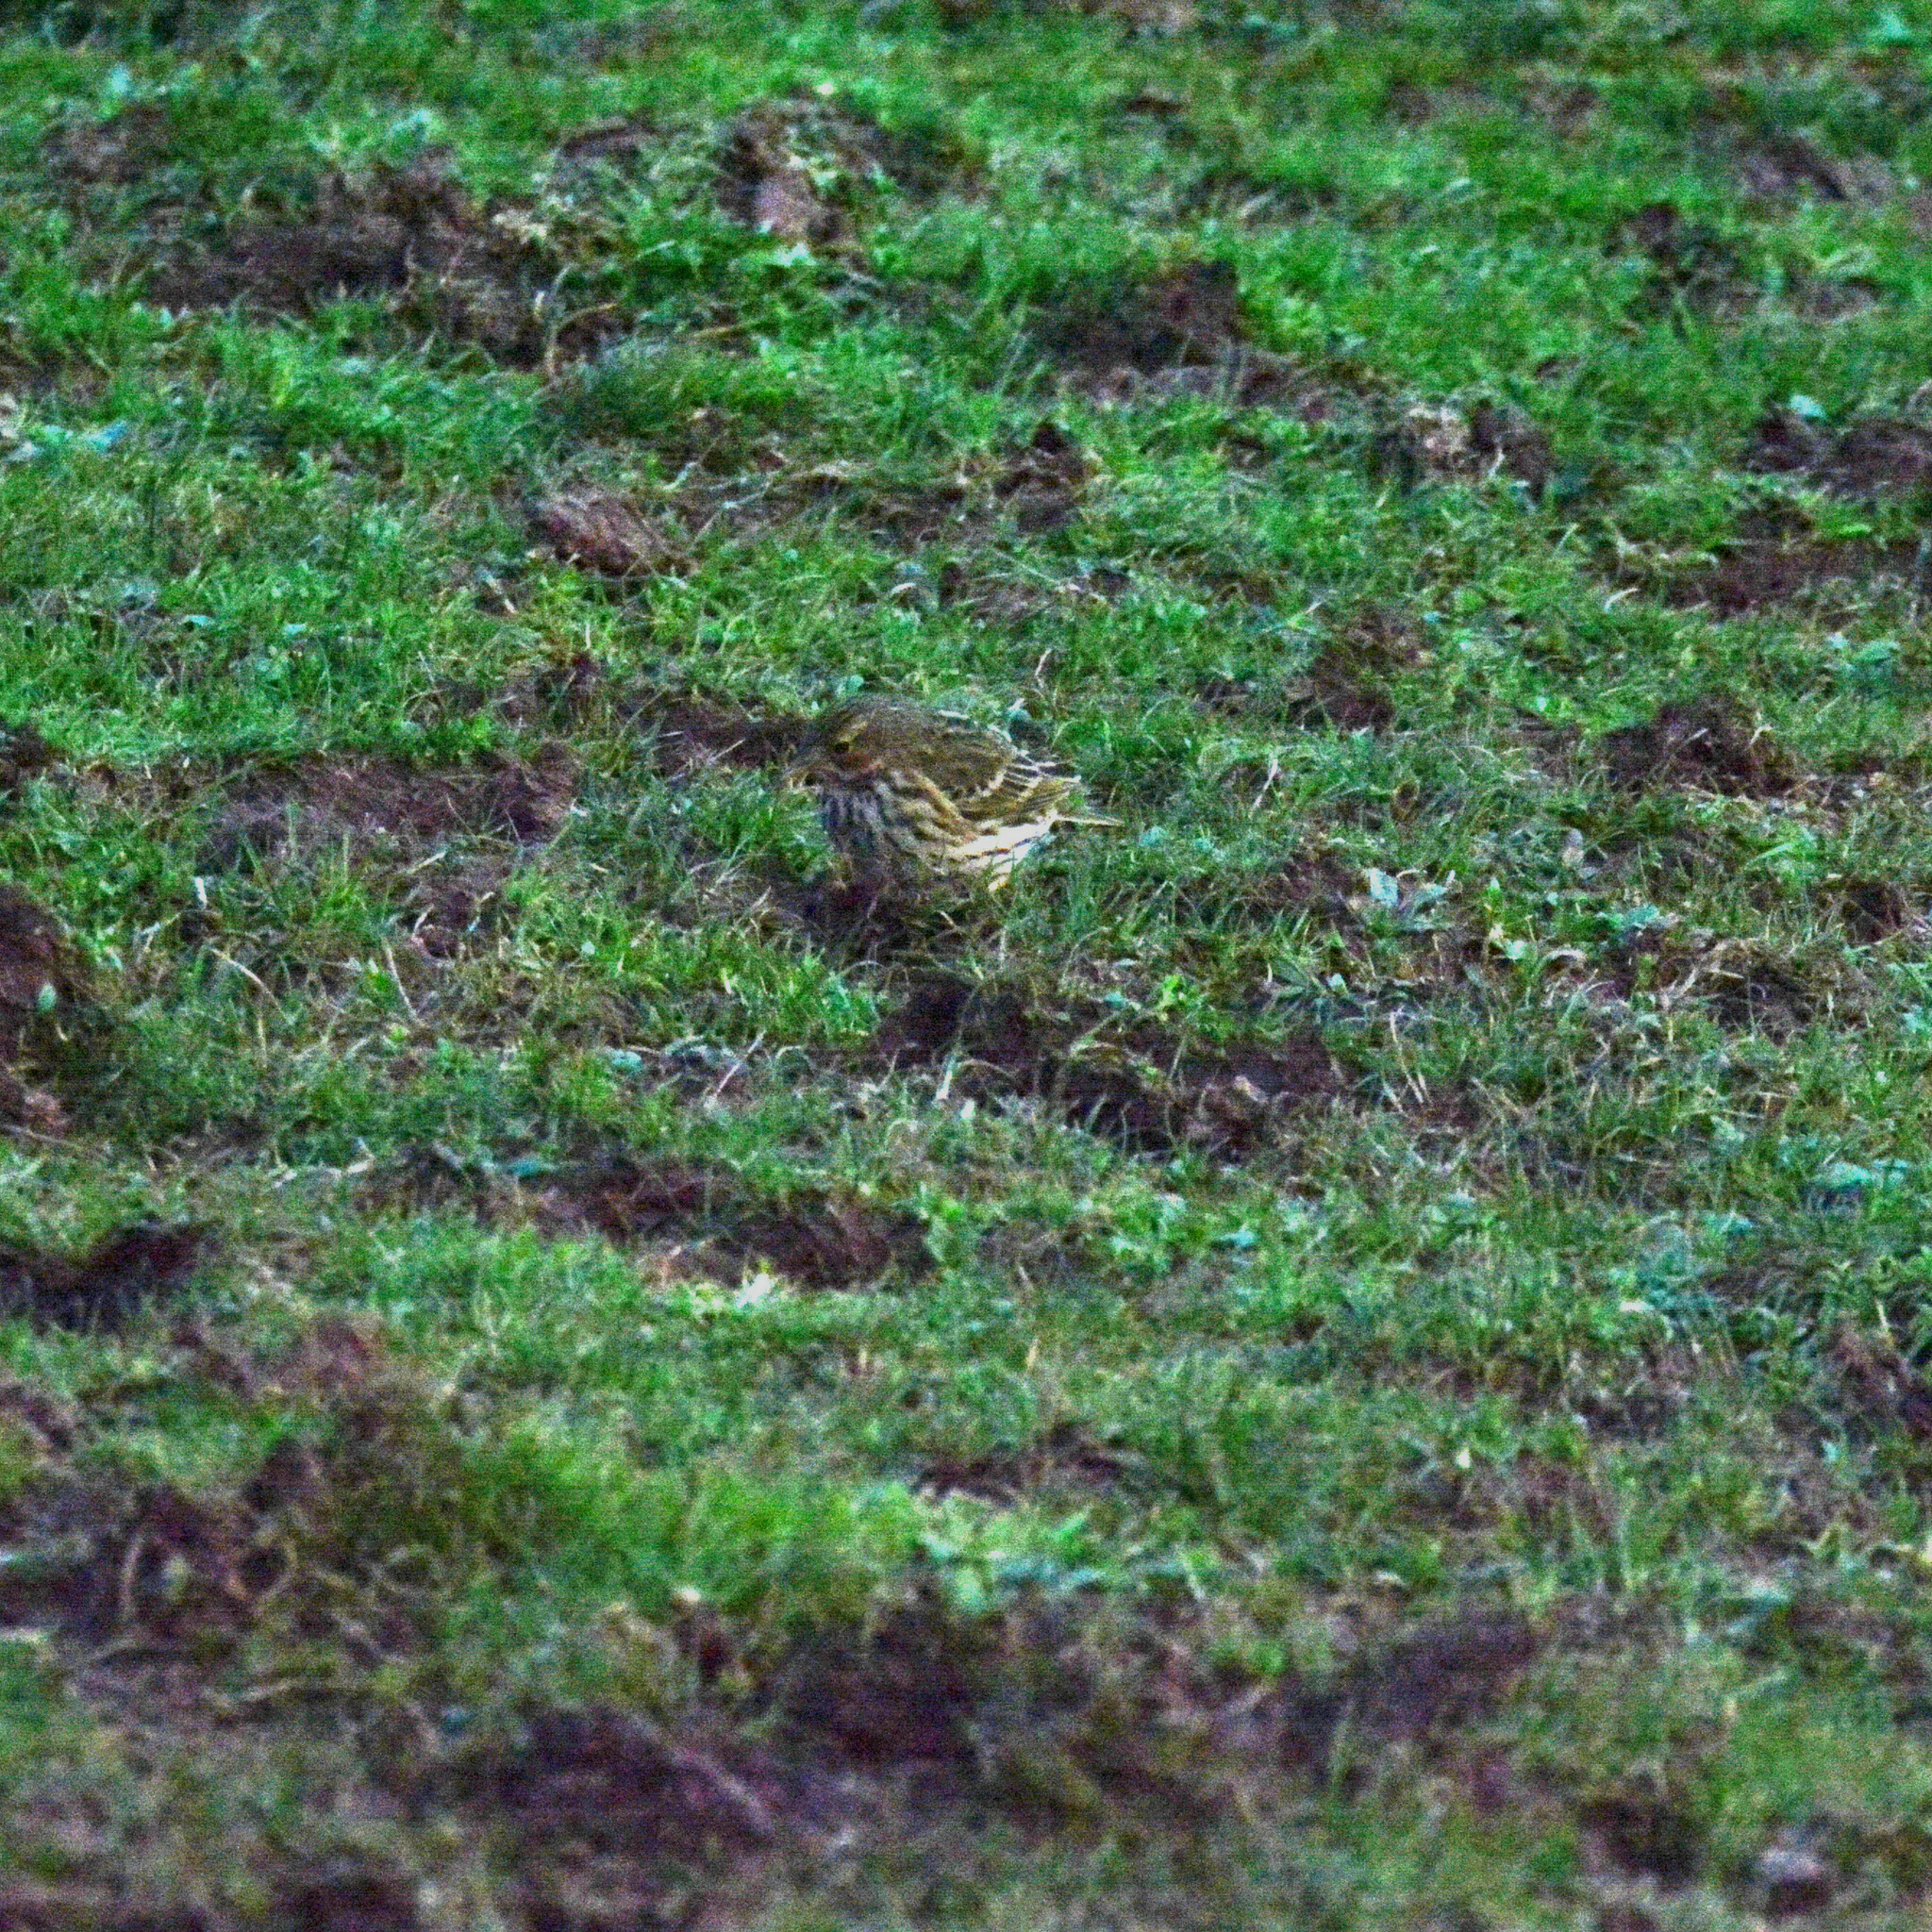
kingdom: Animalia
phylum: Chordata
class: Aves
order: Passeriformes
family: Motacillidae
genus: Anthus
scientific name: Anthus pratensis
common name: Meadow pipit
